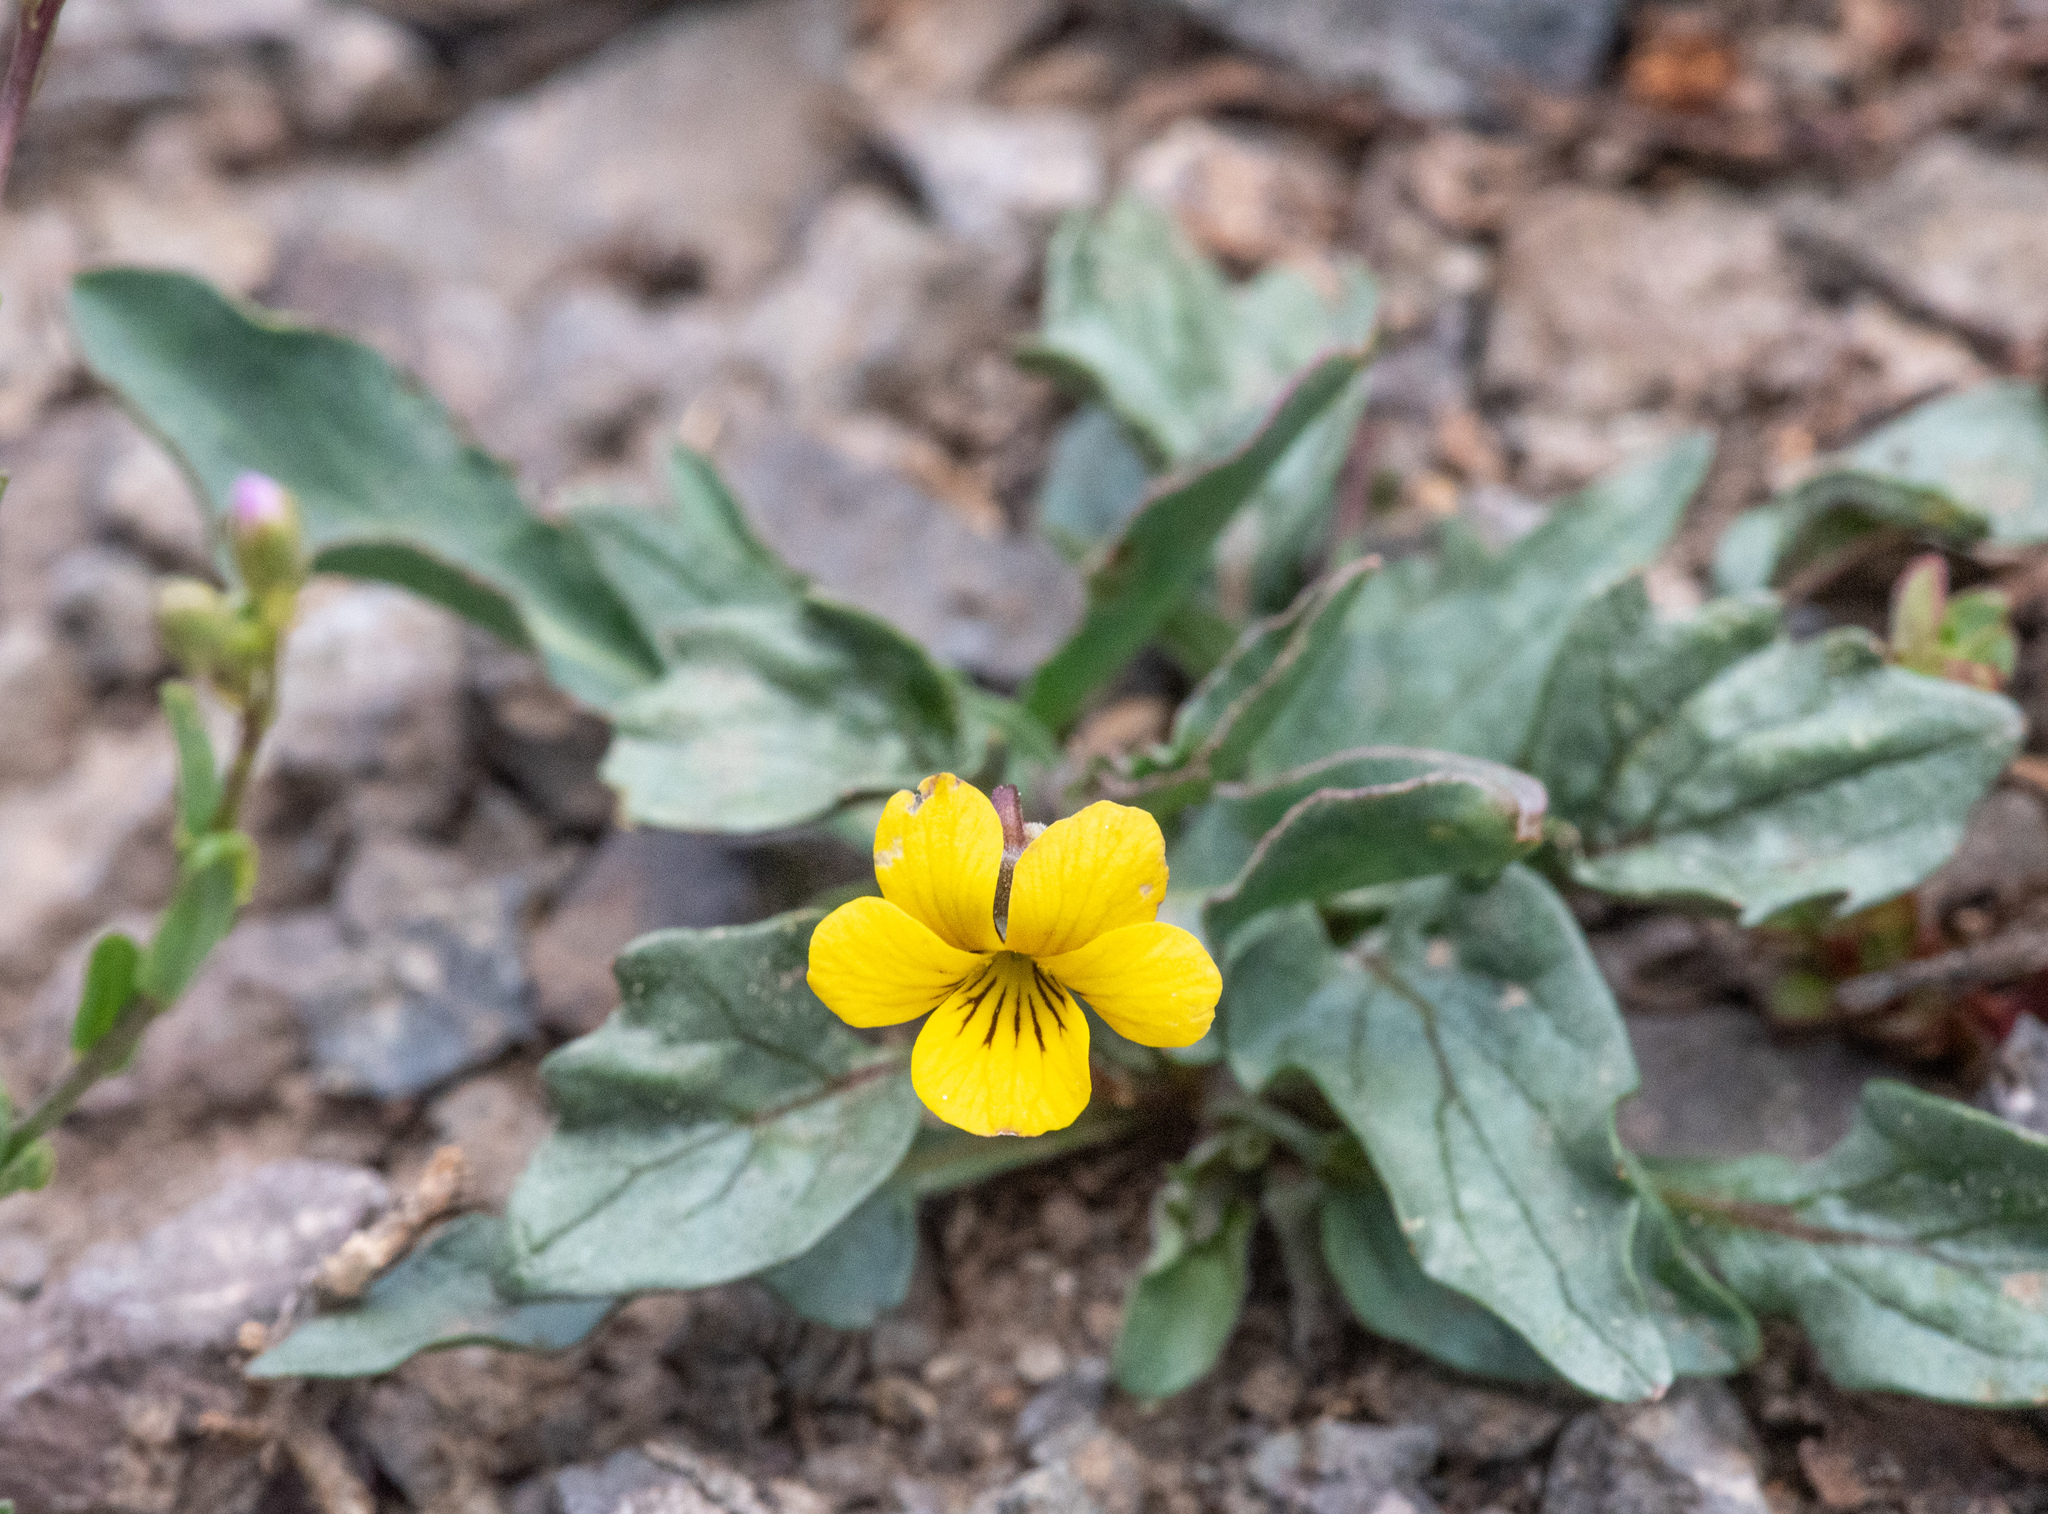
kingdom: Plantae
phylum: Tracheophyta
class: Magnoliopsida
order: Malpighiales
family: Violaceae
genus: Viola
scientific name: Viola purpurea
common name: Pine violet
